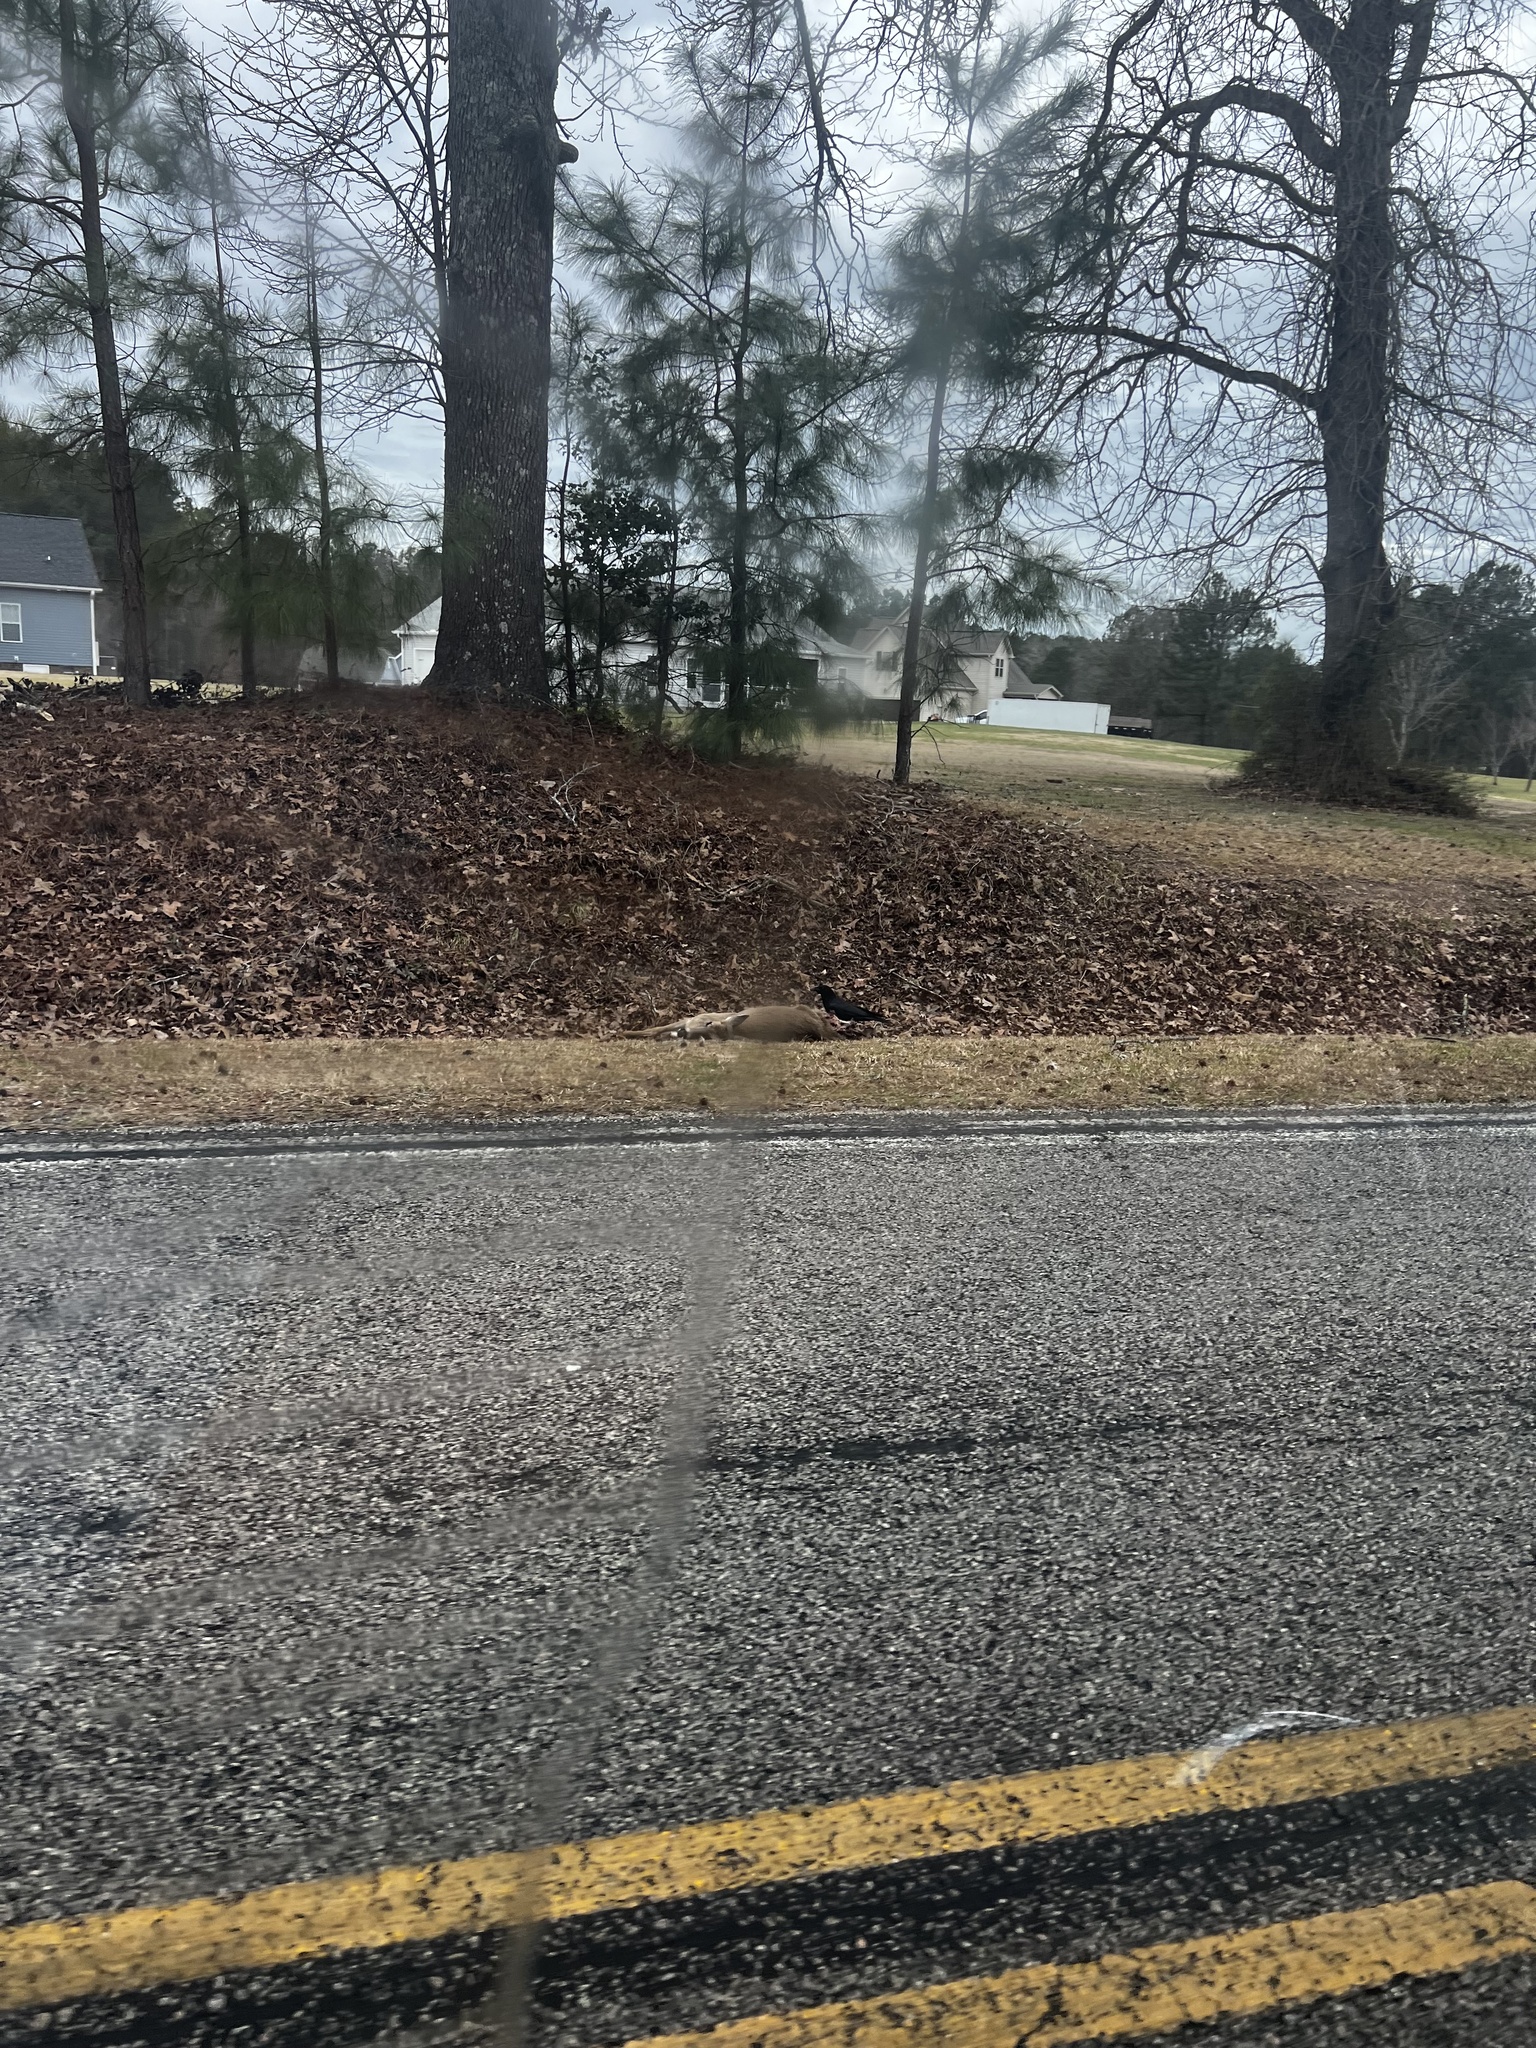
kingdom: Animalia
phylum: Chordata
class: Mammalia
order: Artiodactyla
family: Cervidae
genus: Odocoileus
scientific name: Odocoileus virginianus
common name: White-tailed deer
